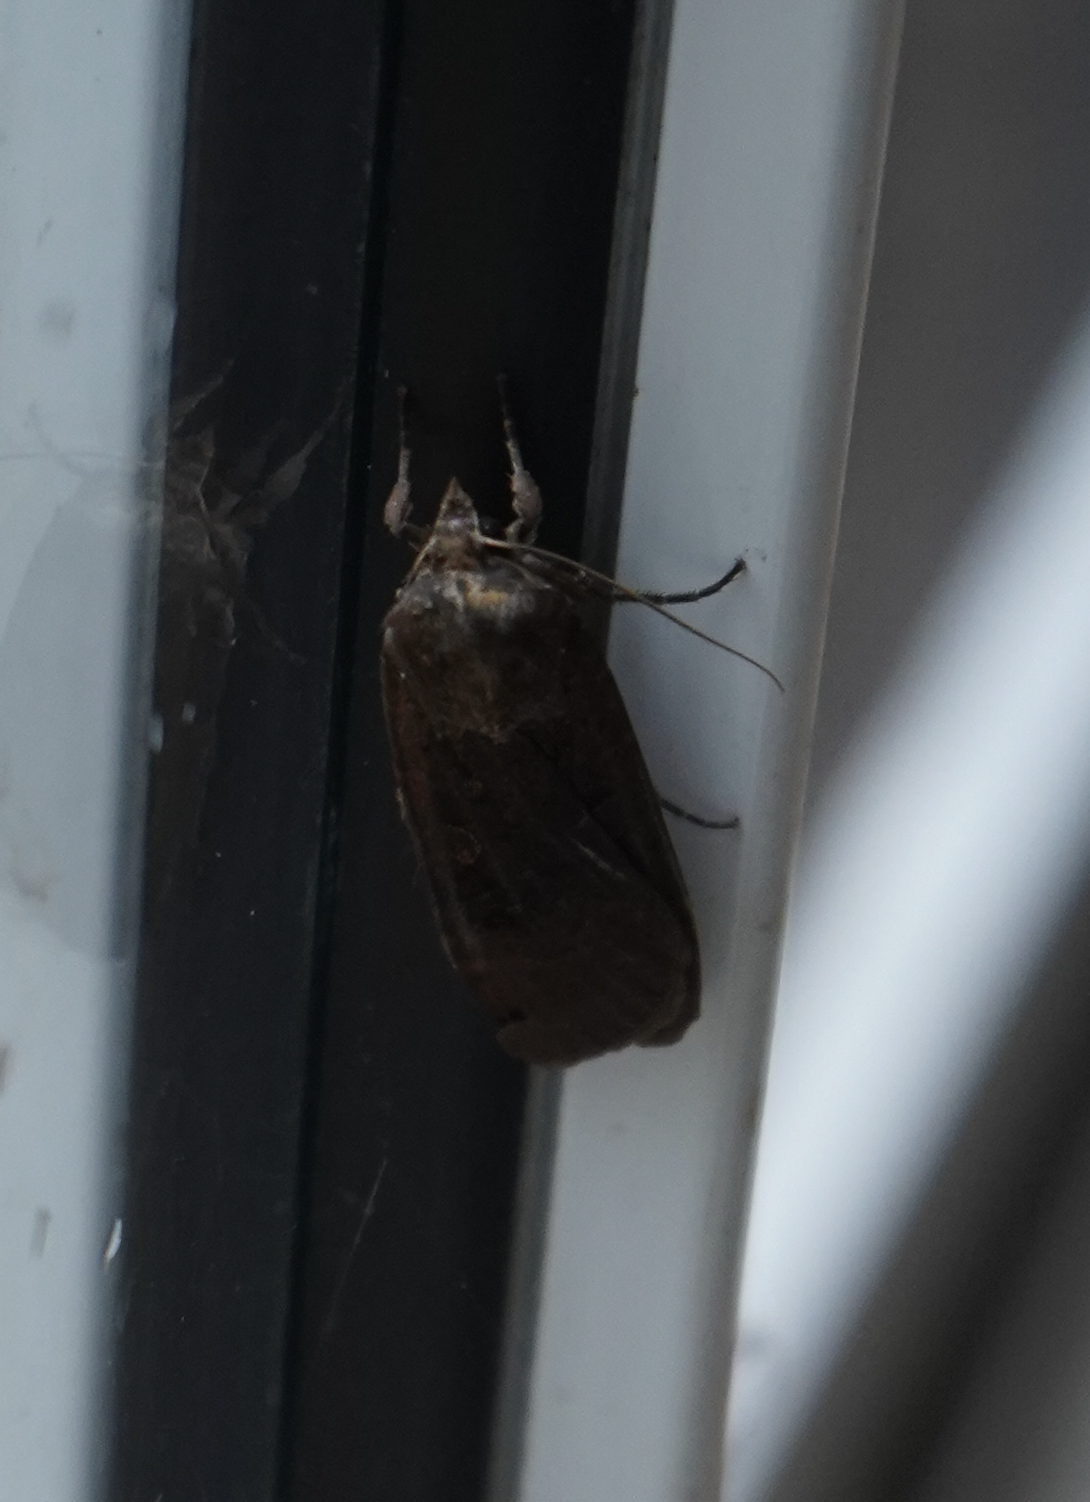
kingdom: Animalia
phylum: Arthropoda
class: Insecta
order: Lepidoptera
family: Noctuidae
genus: Noctua
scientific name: Noctua pronuba
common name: Large yellow underwing
